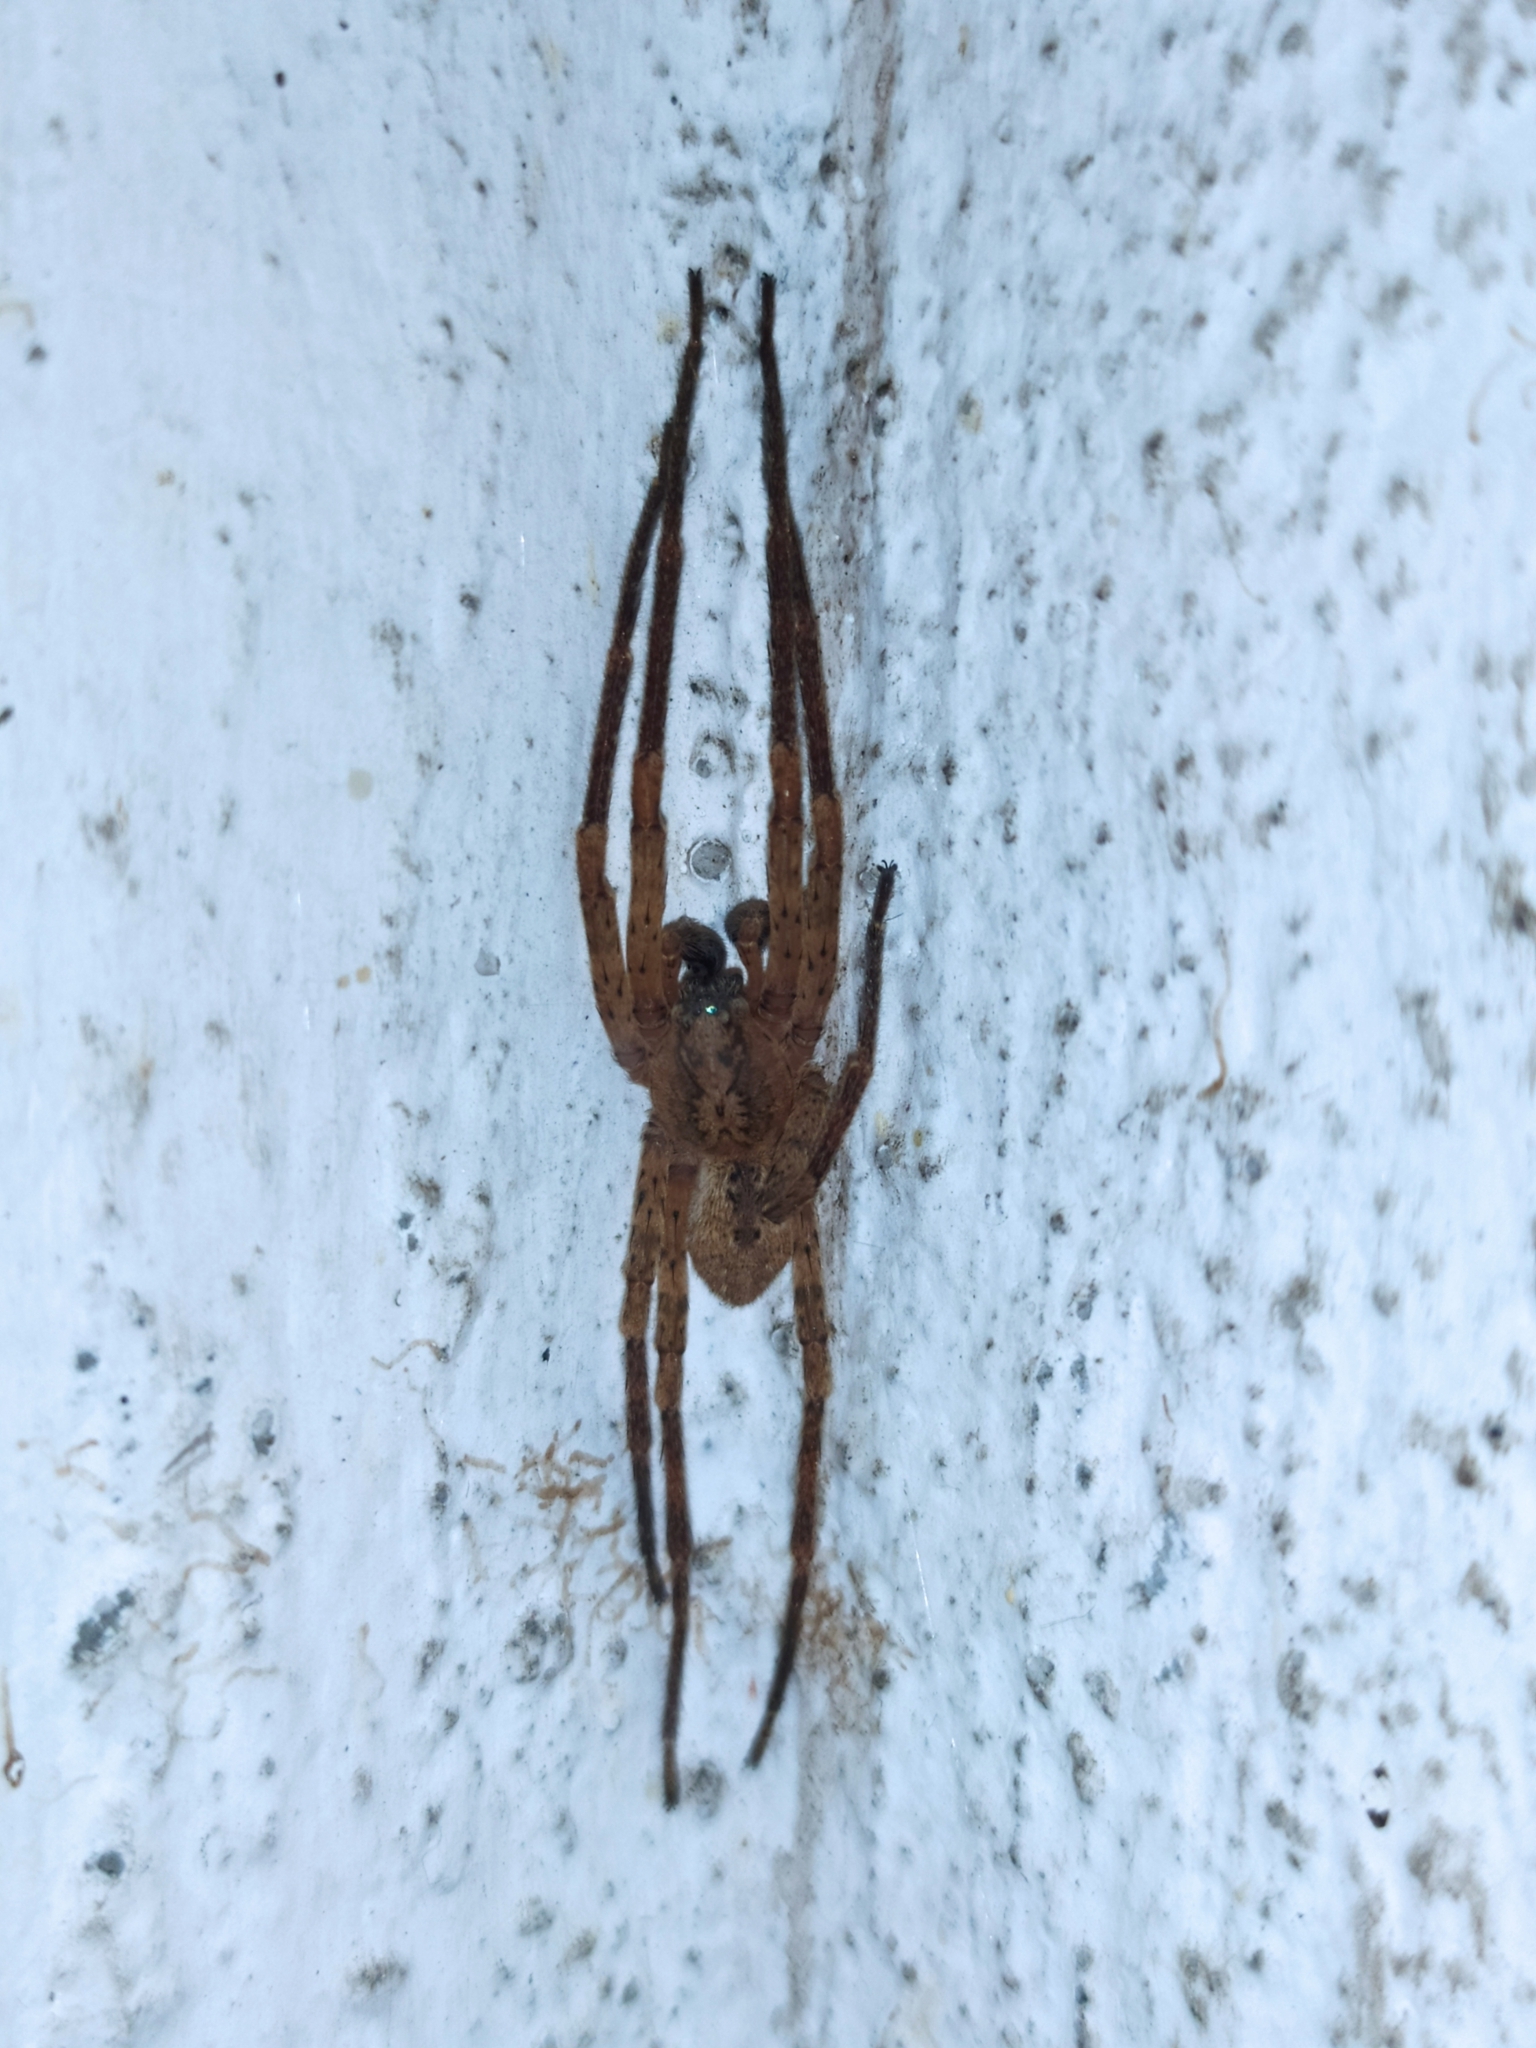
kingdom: Animalia
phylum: Arthropoda
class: Arachnida
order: Araneae
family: Zoropsidae
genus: Zoropsis
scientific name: Zoropsis spinimana
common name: Zoropsid spider
